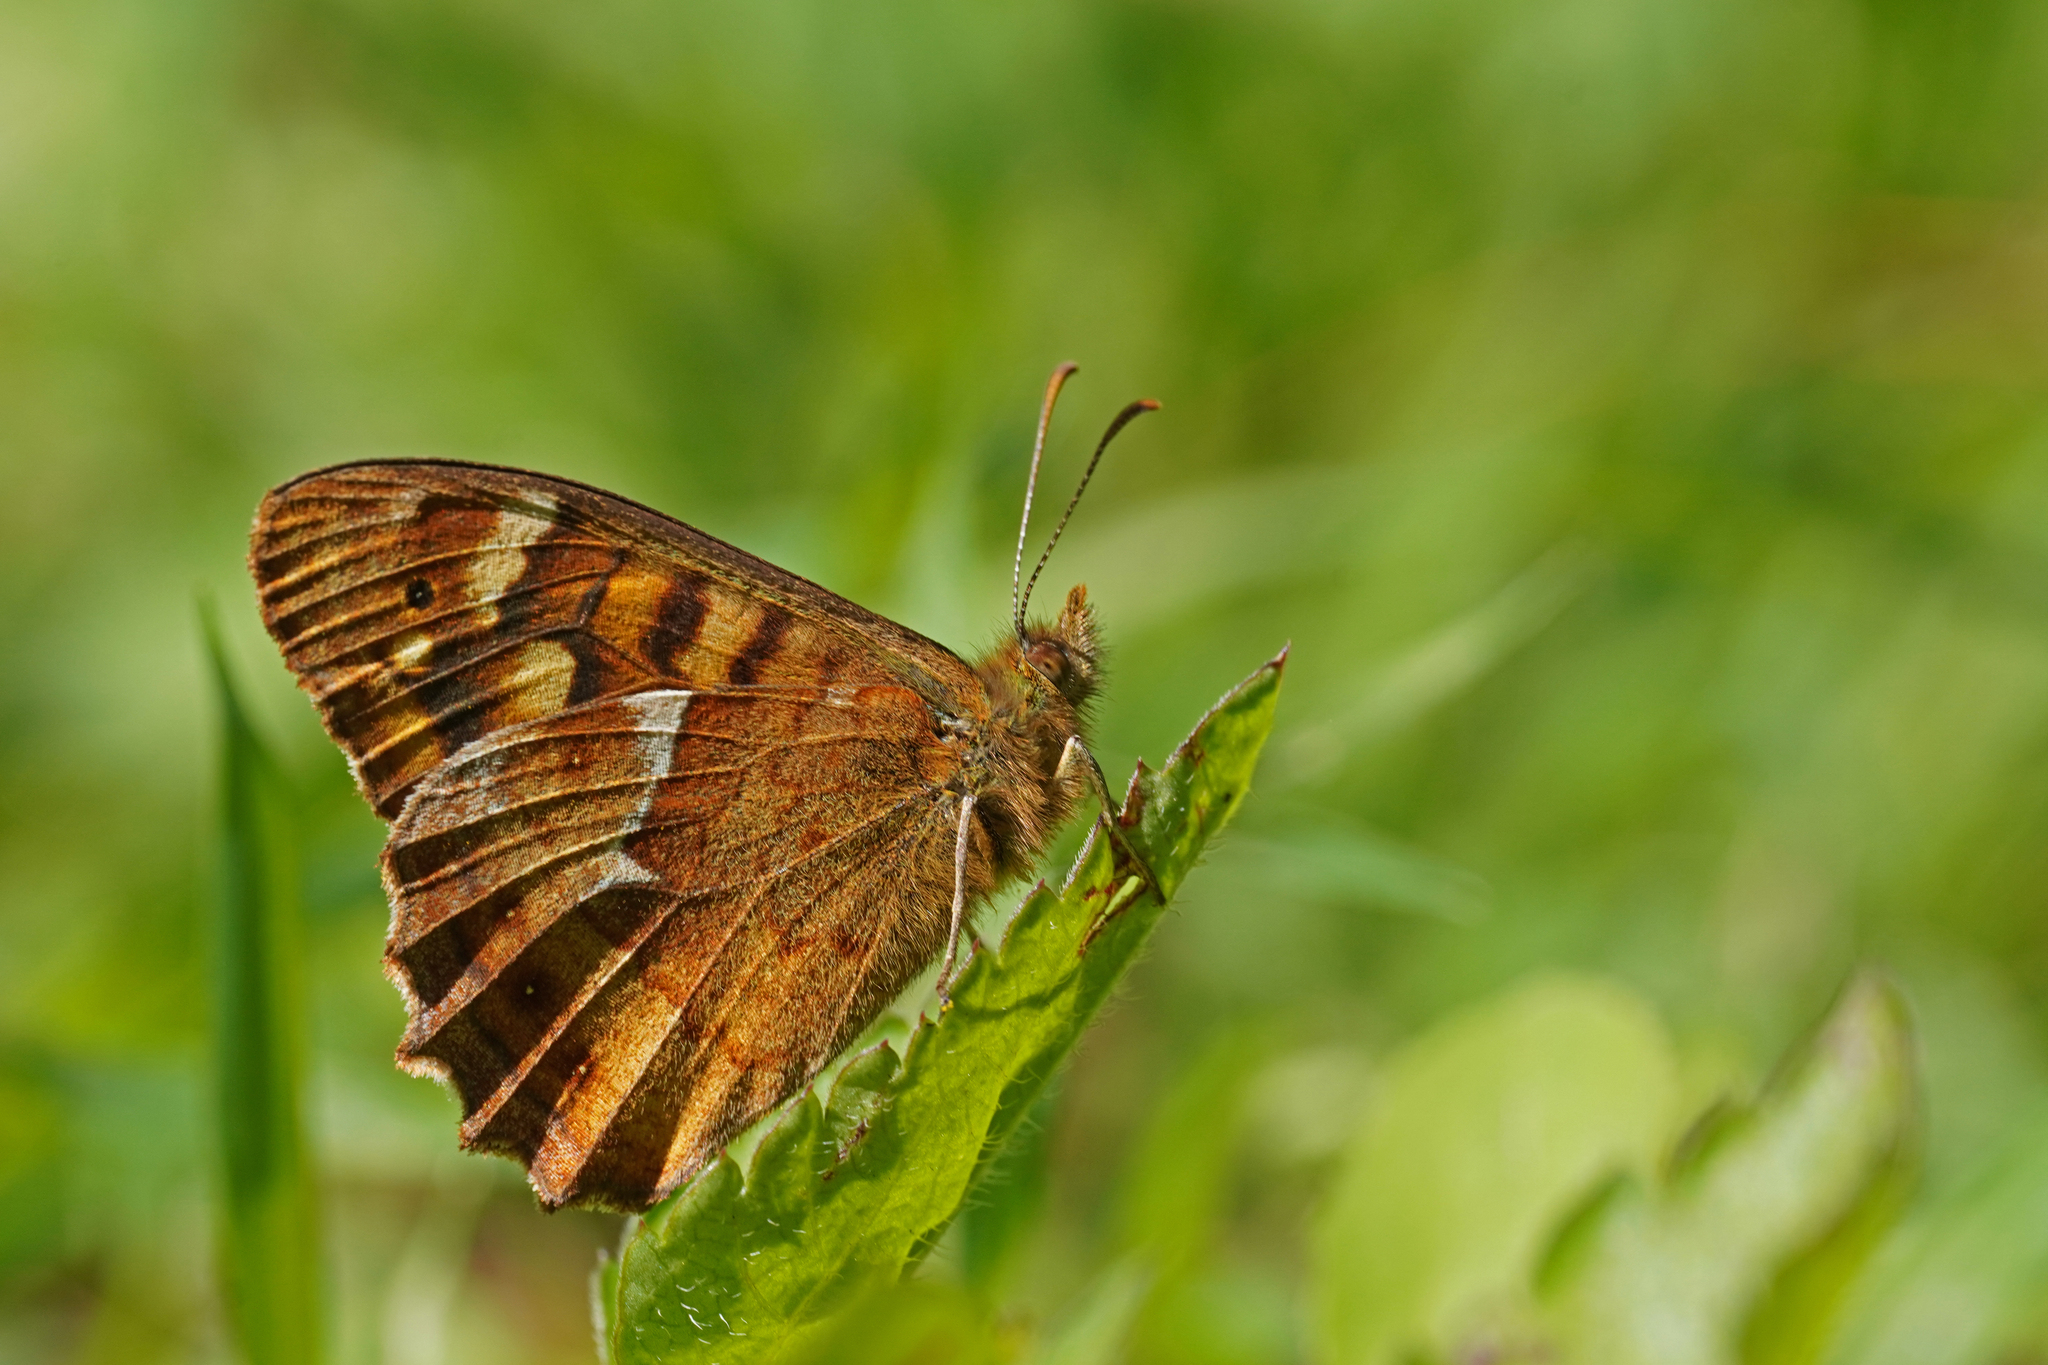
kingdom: Animalia
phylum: Arthropoda
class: Insecta
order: Lepidoptera
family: Nymphalidae
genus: Pararge
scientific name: Pararge aegeria
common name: Speckled wood
